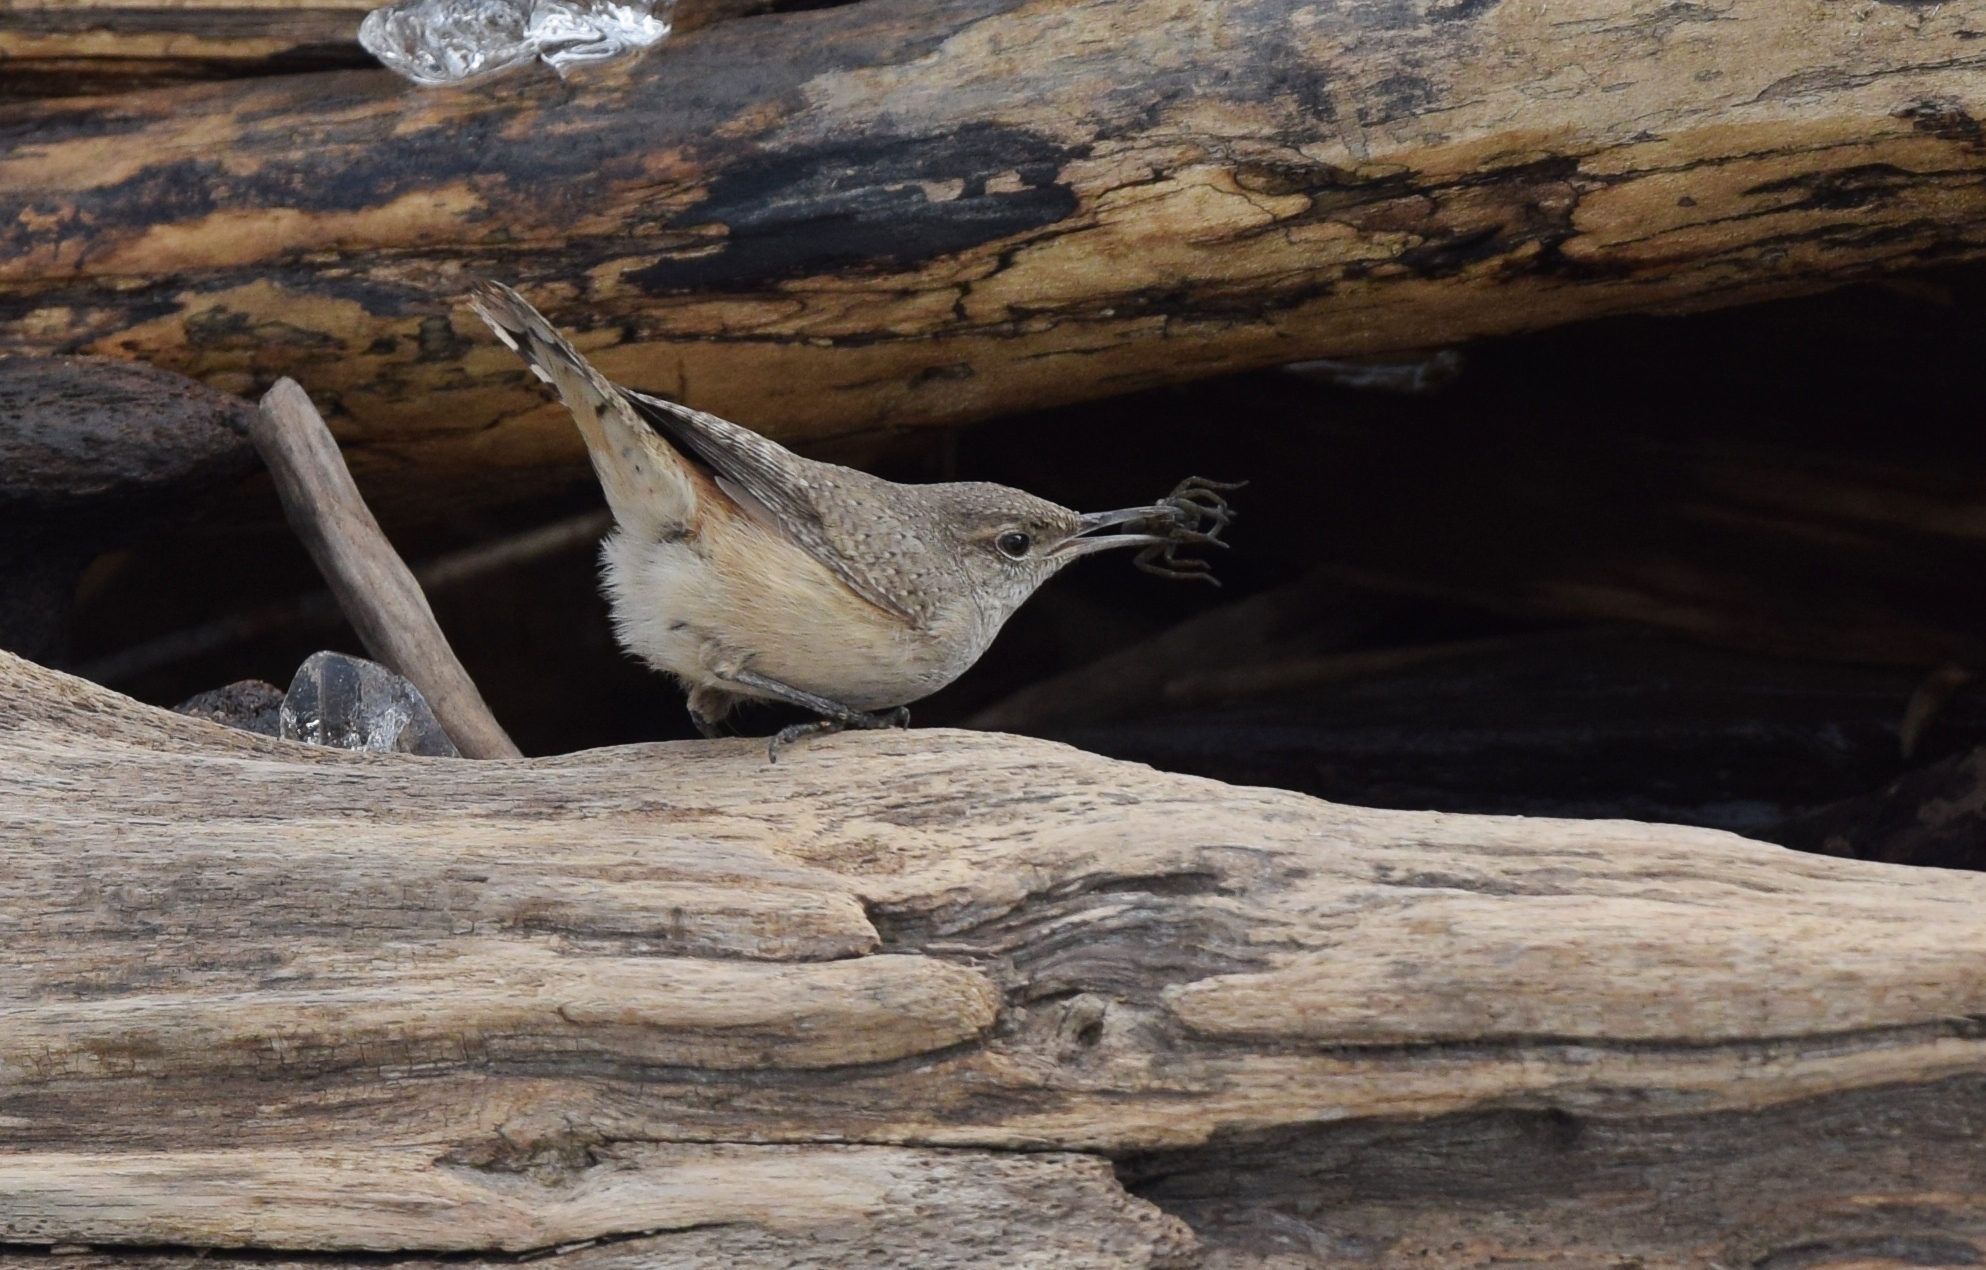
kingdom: Animalia
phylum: Chordata
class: Aves
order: Passeriformes
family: Troglodytidae
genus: Salpinctes
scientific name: Salpinctes obsoletus
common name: Rock wren
